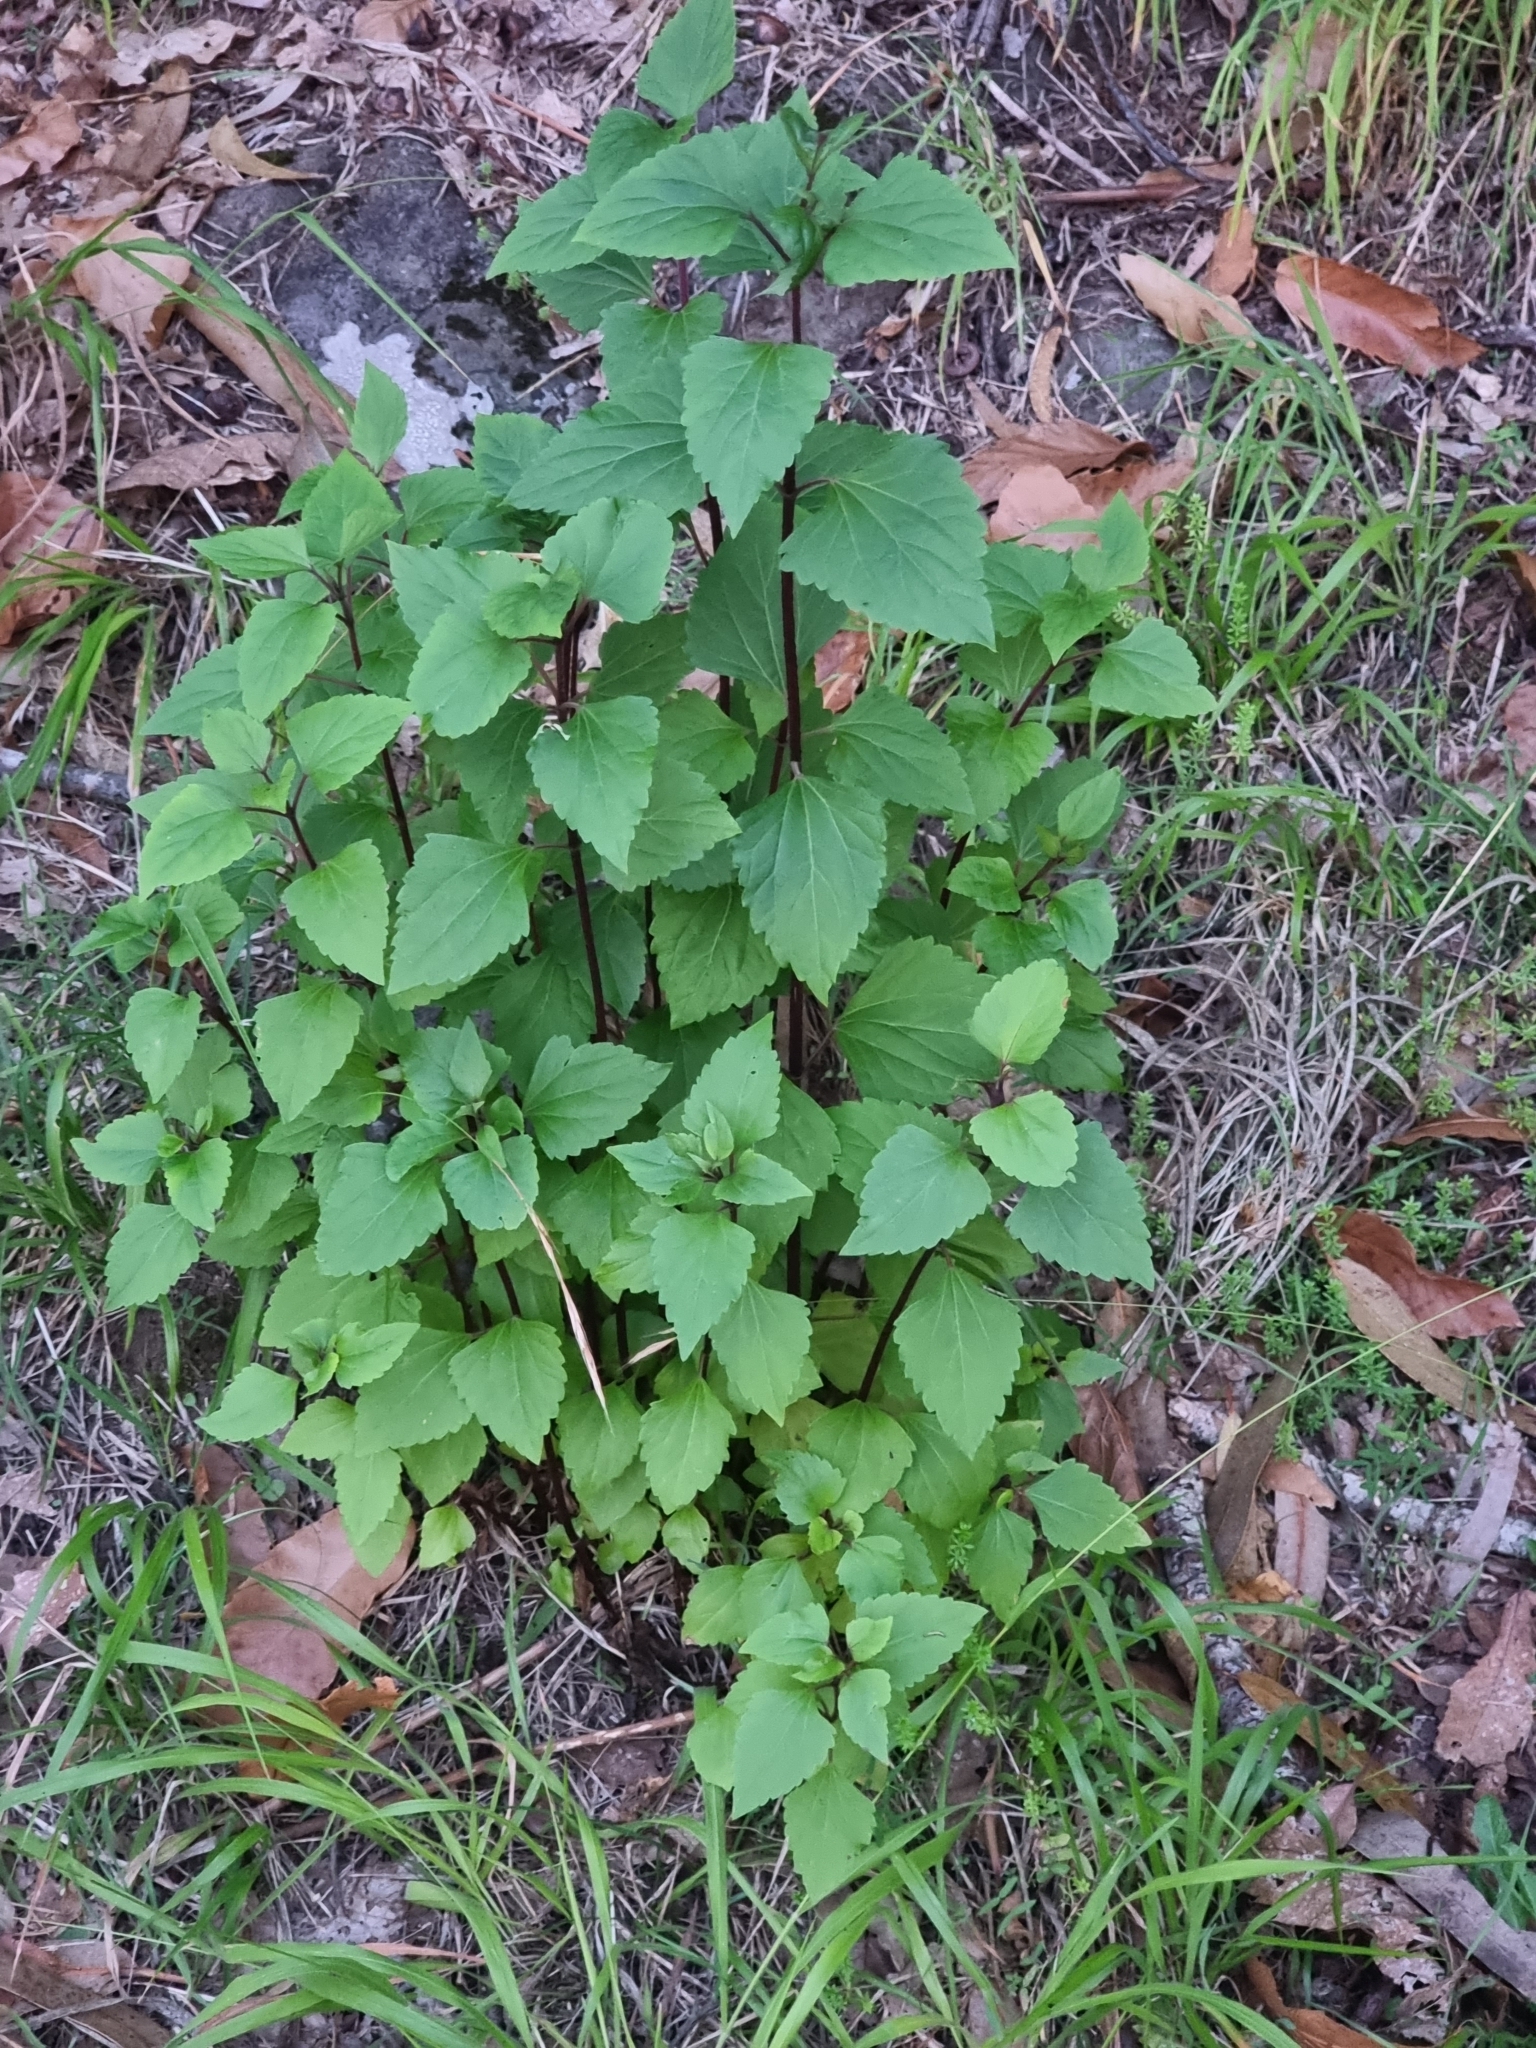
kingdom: Plantae
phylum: Tracheophyta
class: Magnoliopsida
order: Asterales
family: Asteraceae
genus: Ageratina
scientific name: Ageratina adenophora
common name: Sticky snakeroot
